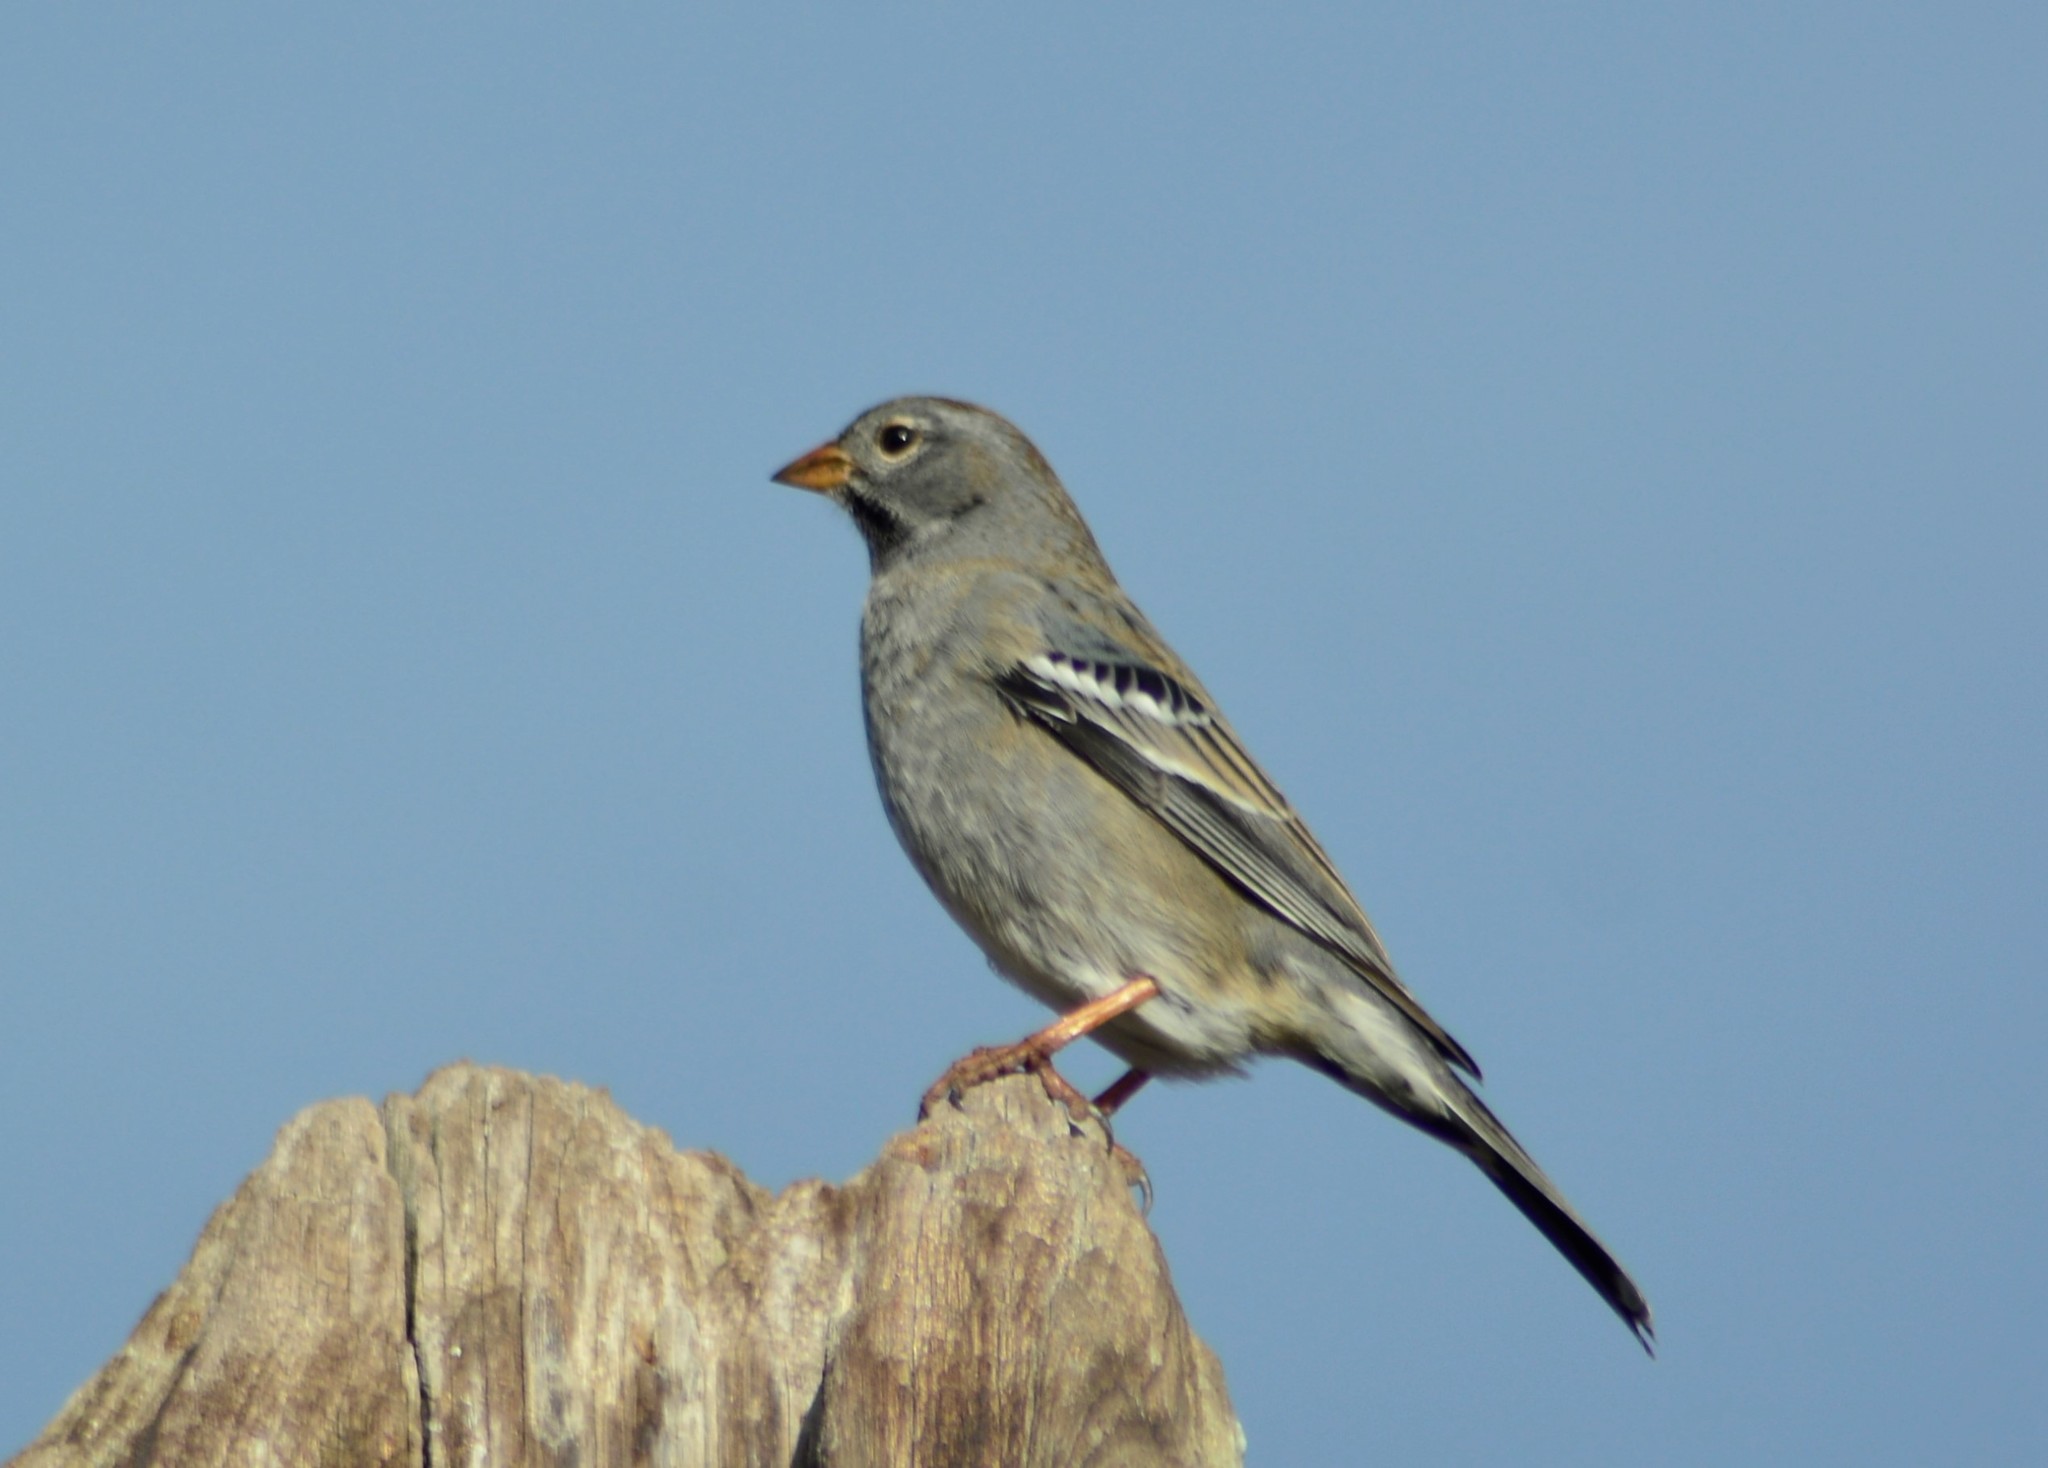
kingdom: Animalia
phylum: Chordata
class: Aves
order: Passeriformes
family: Thraupidae
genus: Rhopospina
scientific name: Rhopospina fruticeti
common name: Mourning sierra finch
